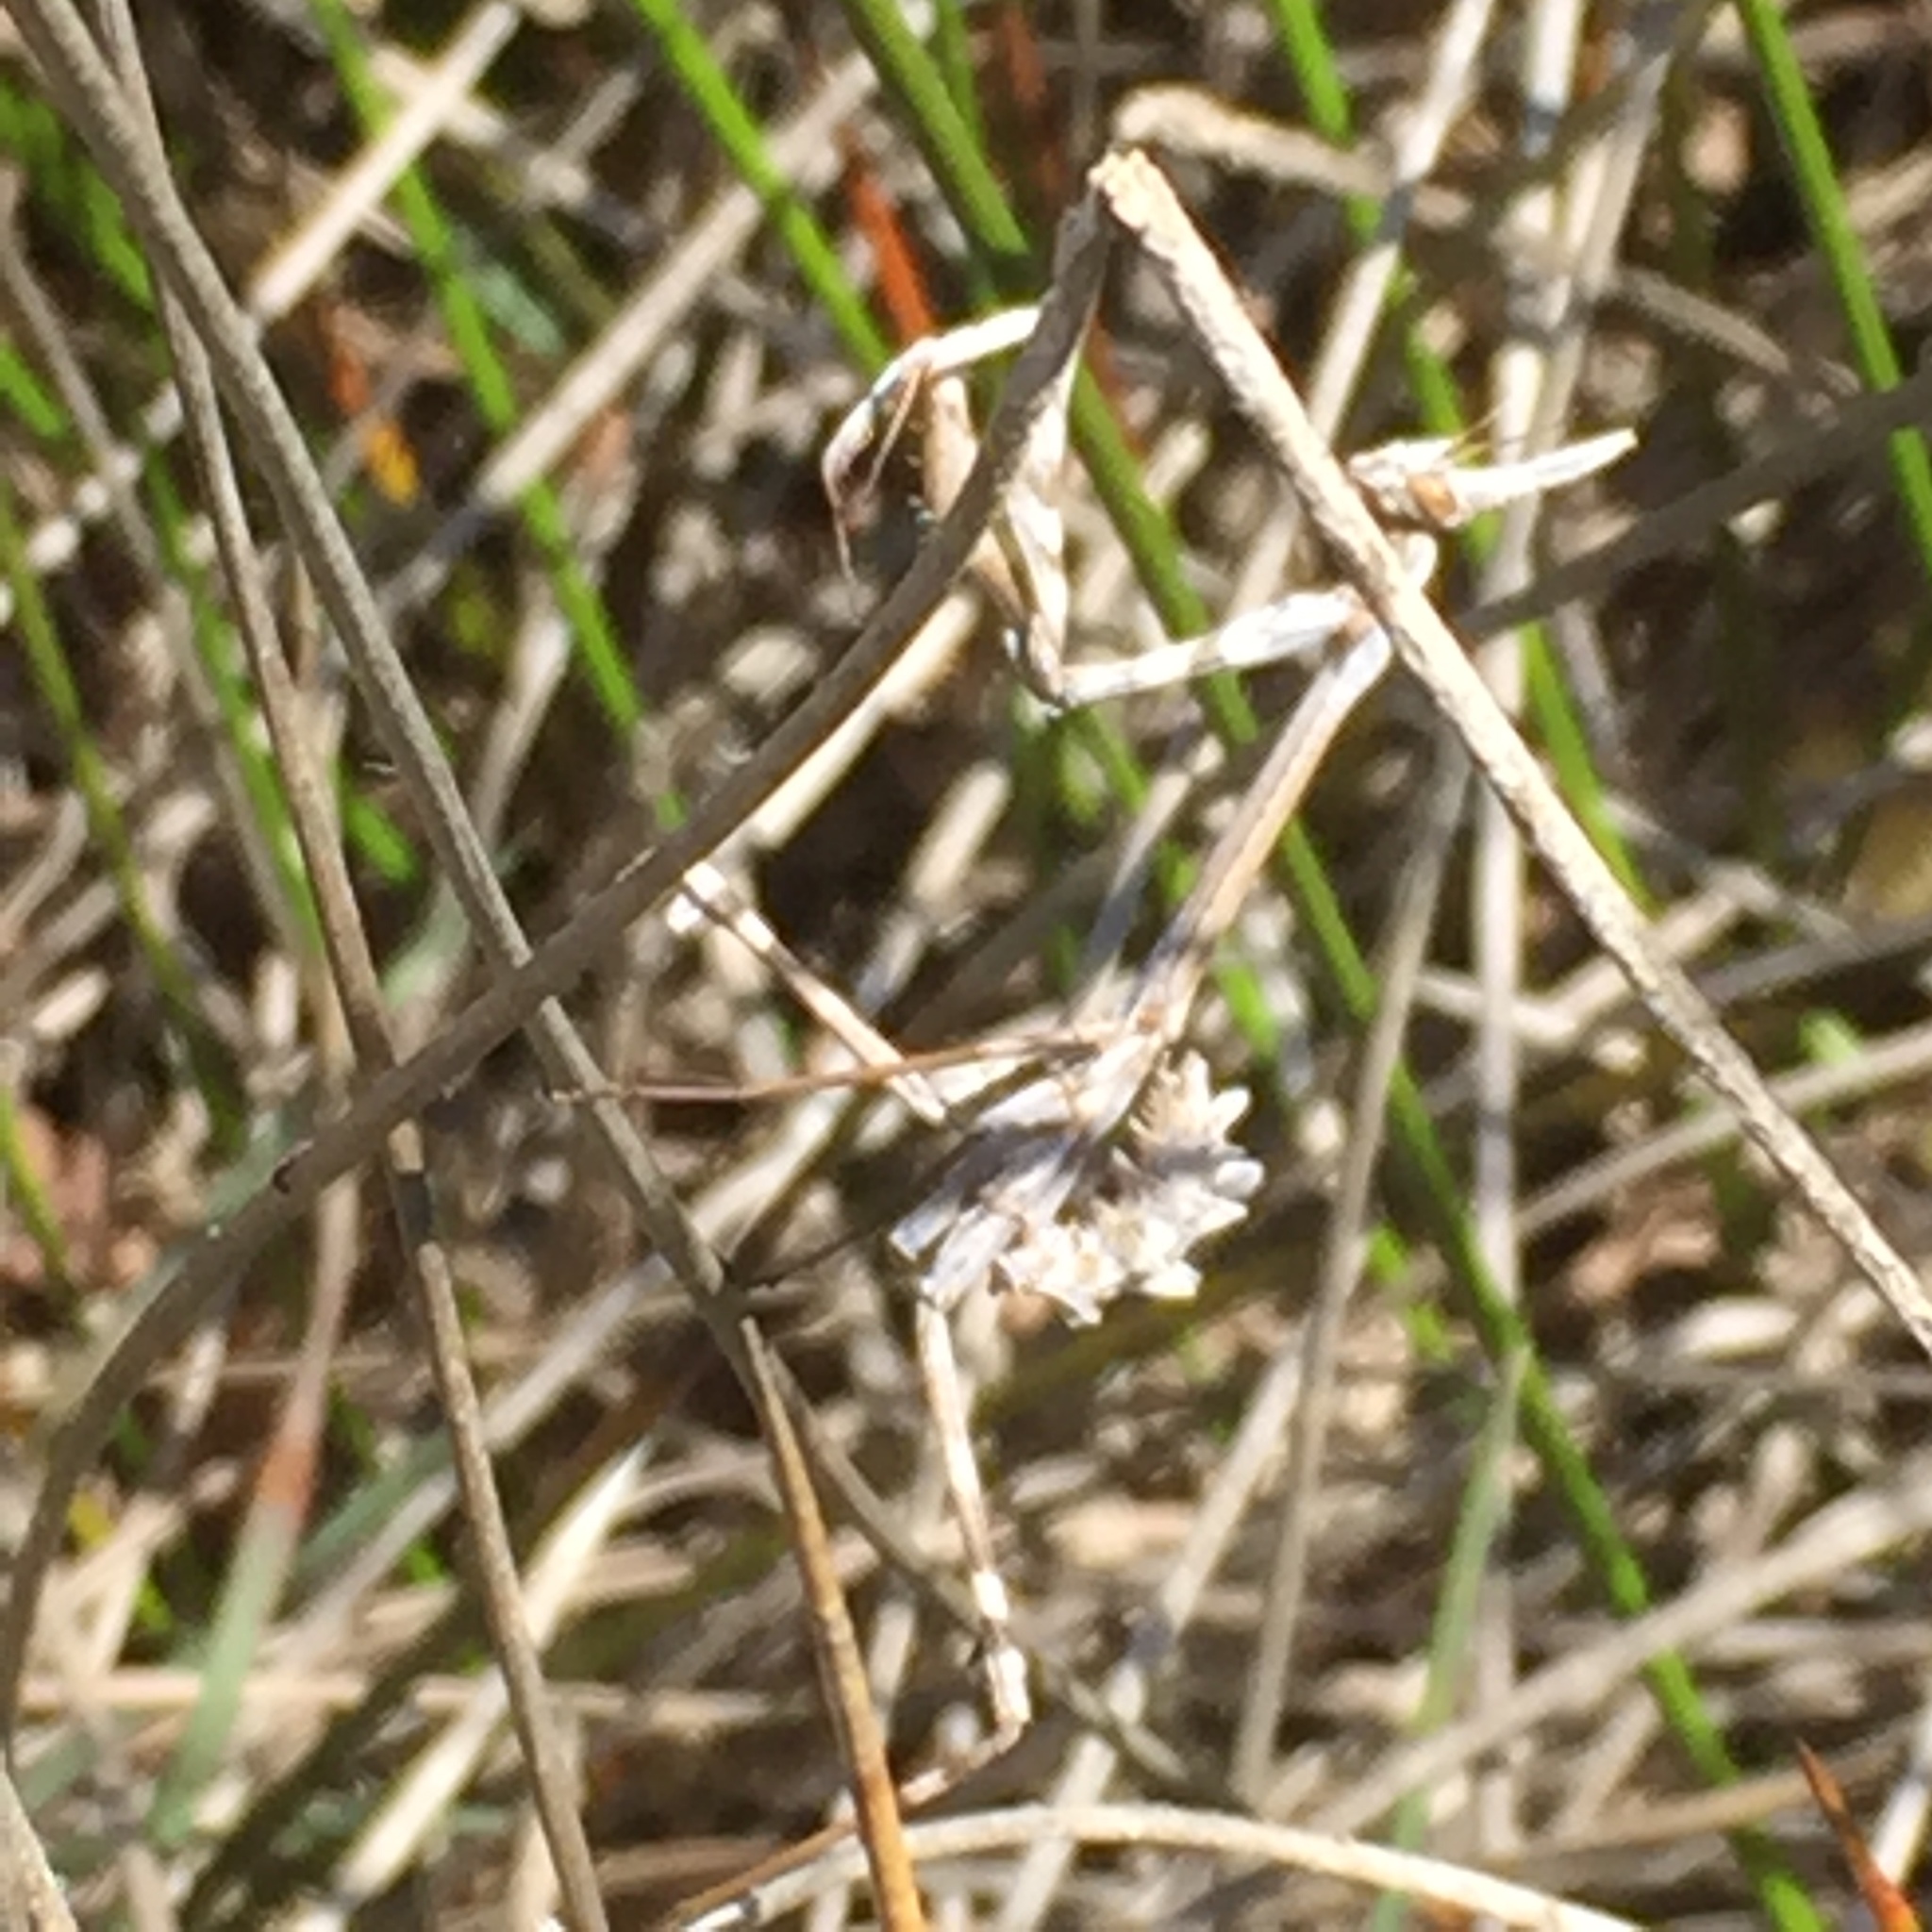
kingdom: Animalia
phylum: Arthropoda
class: Insecta
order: Mantodea
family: Empusidae
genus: Empusa
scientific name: Empusa pennata
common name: Conehead mantis
